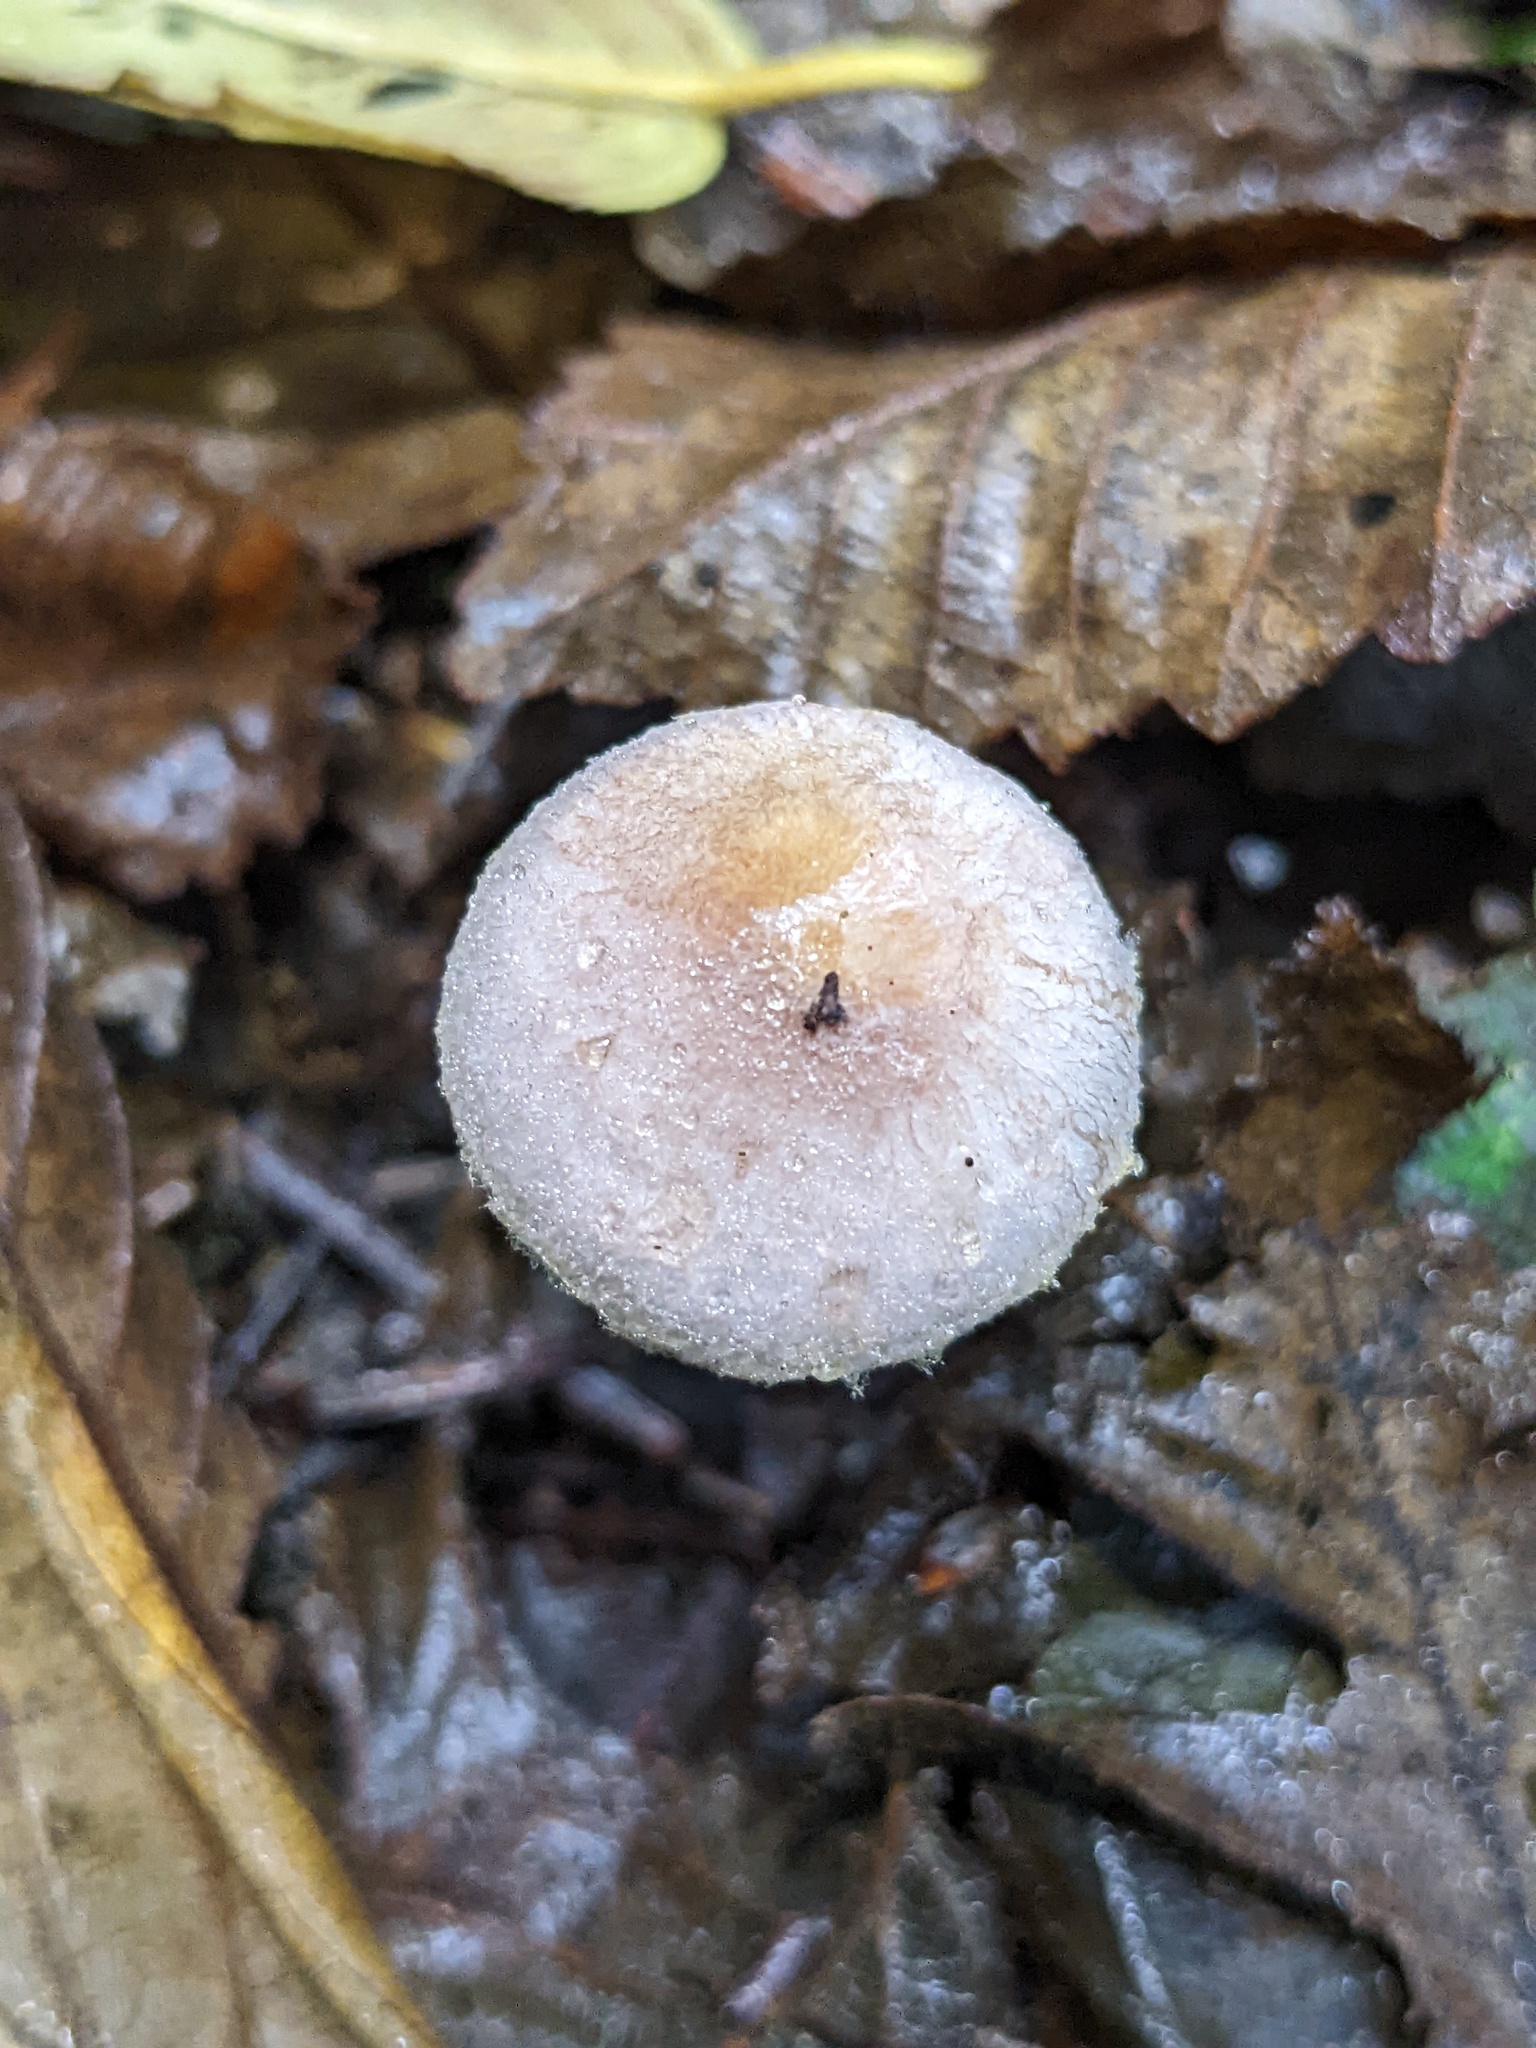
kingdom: Fungi
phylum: Basidiomycota
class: Agaricomycetes
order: Agaricales
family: Agaricaceae
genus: Agaricus
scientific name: Agaricus diminutivus
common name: Diminutive agaricus
